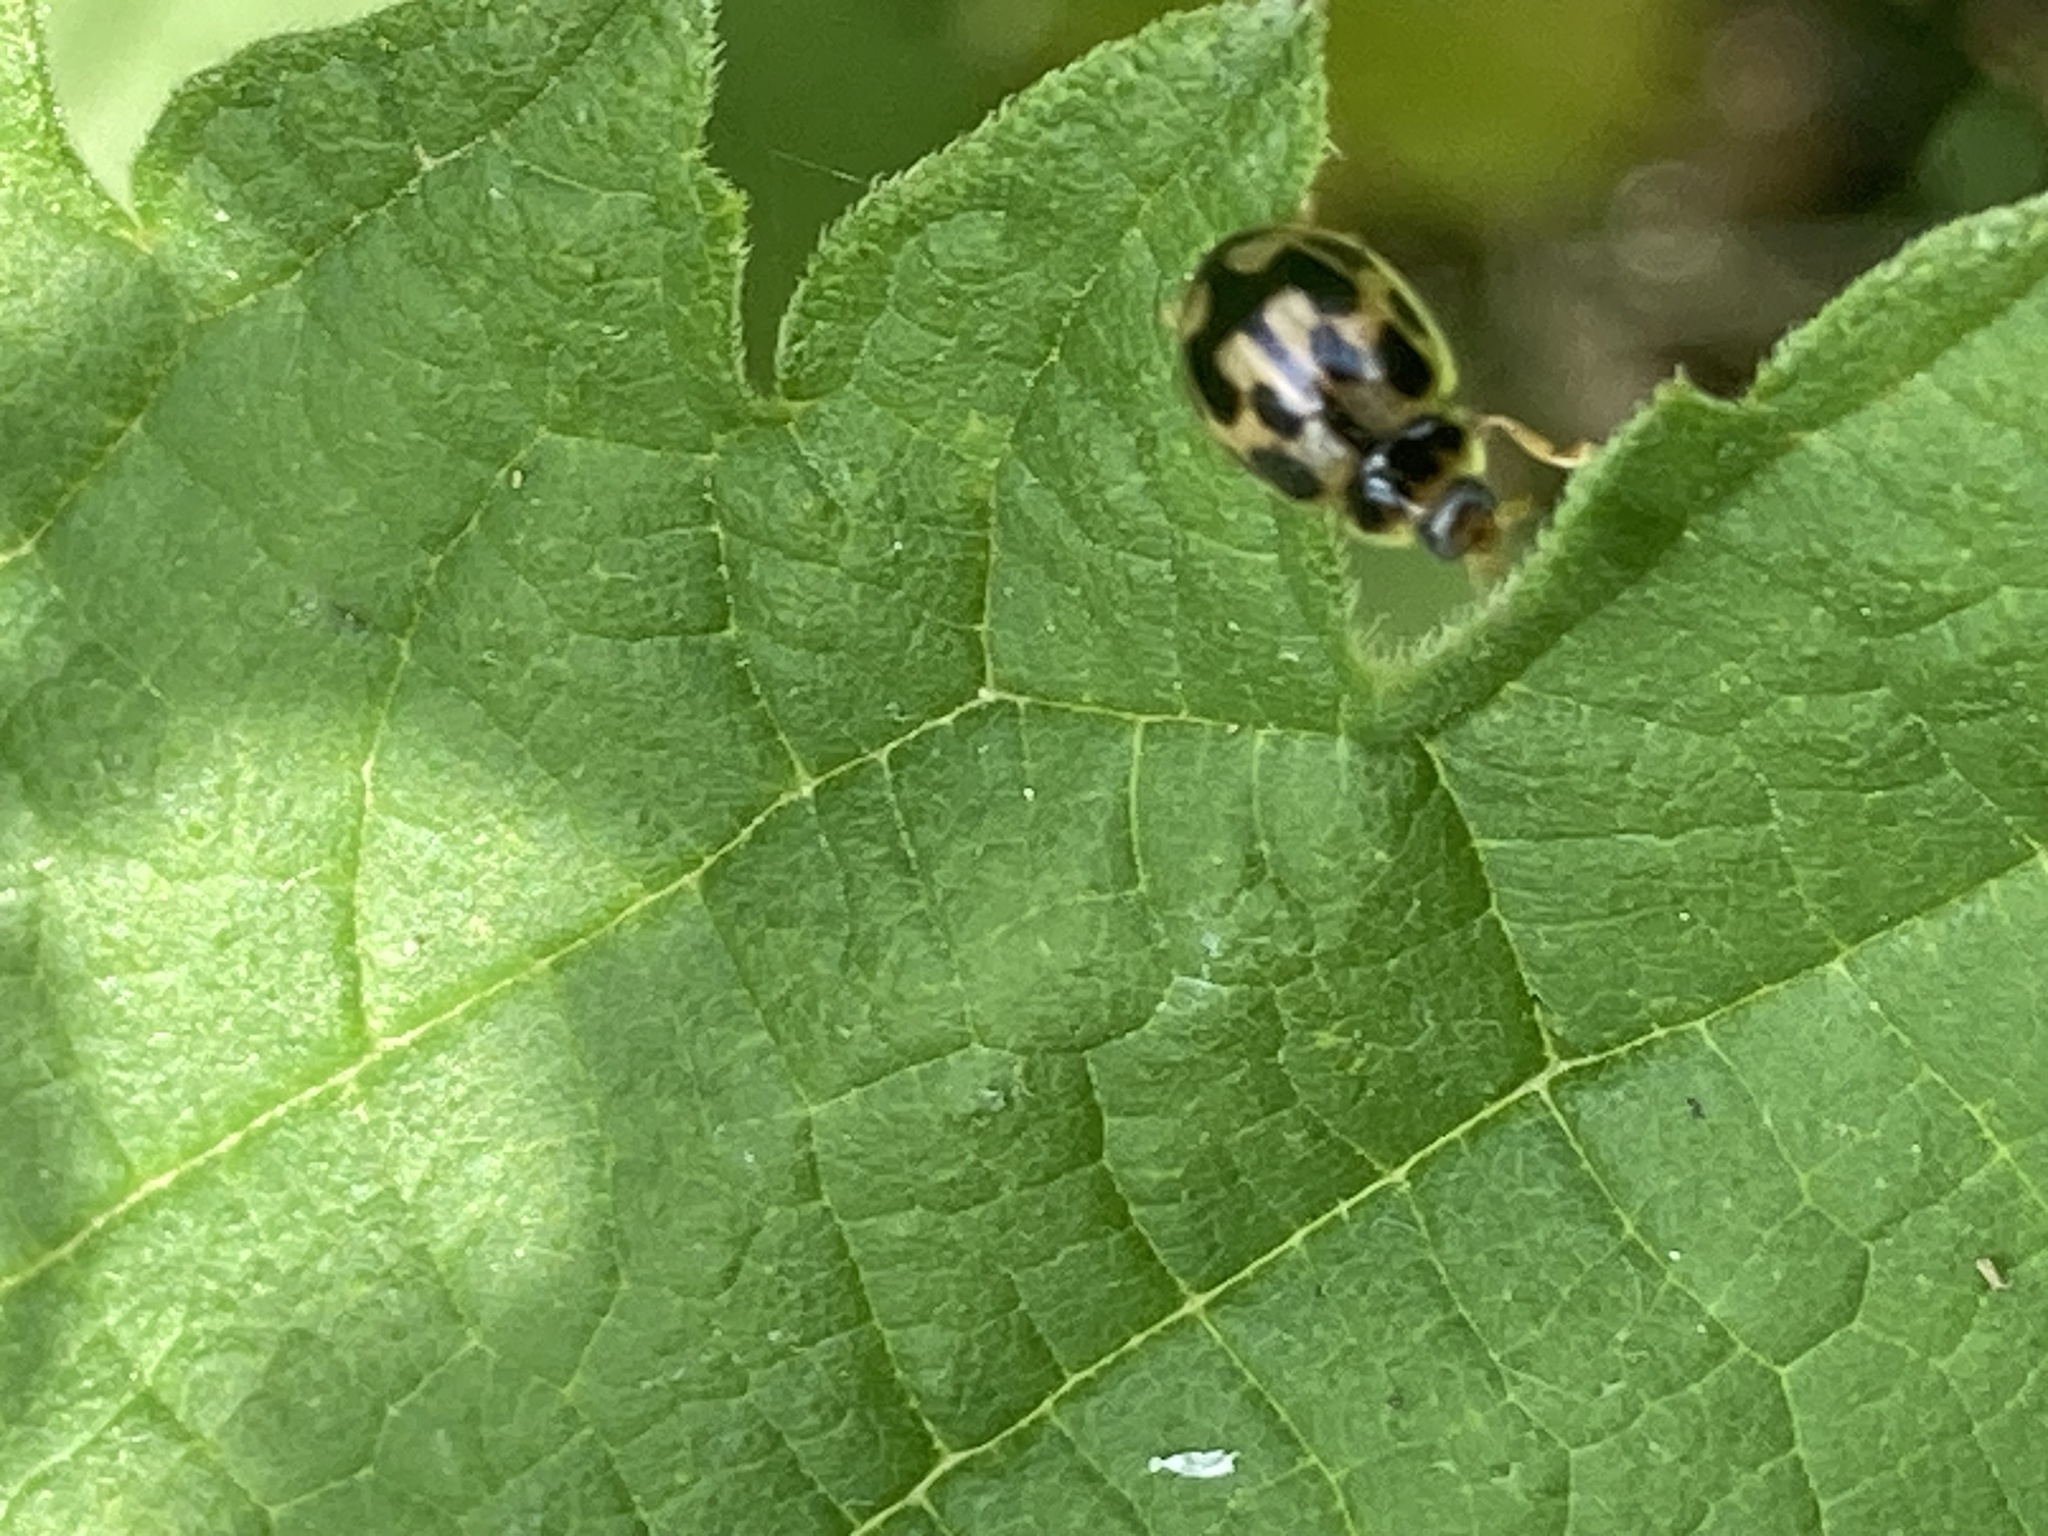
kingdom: Animalia
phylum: Arthropoda
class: Insecta
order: Coleoptera
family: Coccinellidae
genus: Propylaea
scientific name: Propylaea quatuordecimpunctata
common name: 14-spotted ladybird beetle
